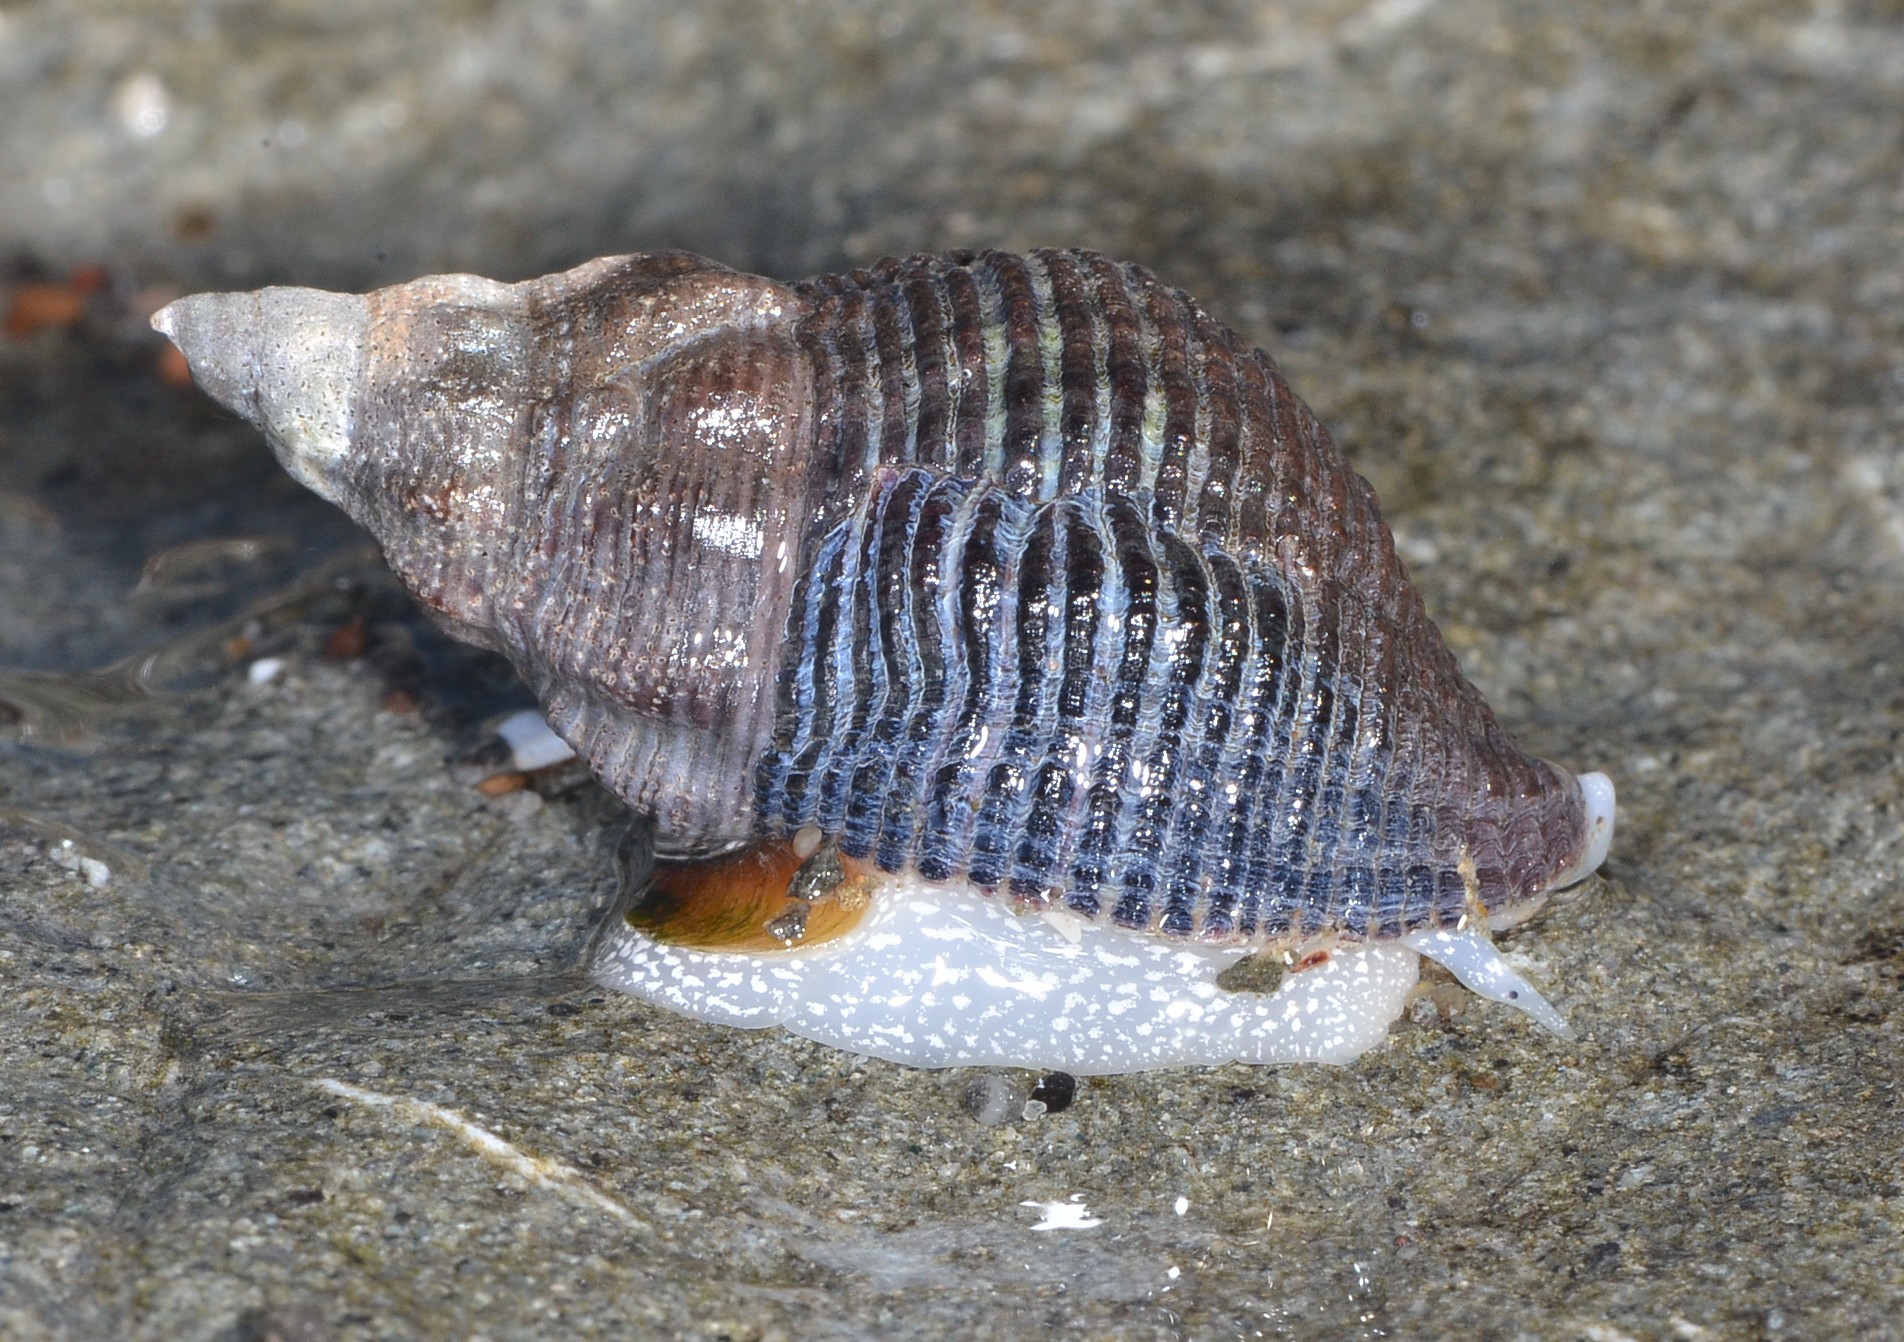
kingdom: Animalia
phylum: Mollusca
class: Gastropoda
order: Neogastropoda
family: Tudiclidae
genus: Lirabuccinum
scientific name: Lirabuccinum dirum
